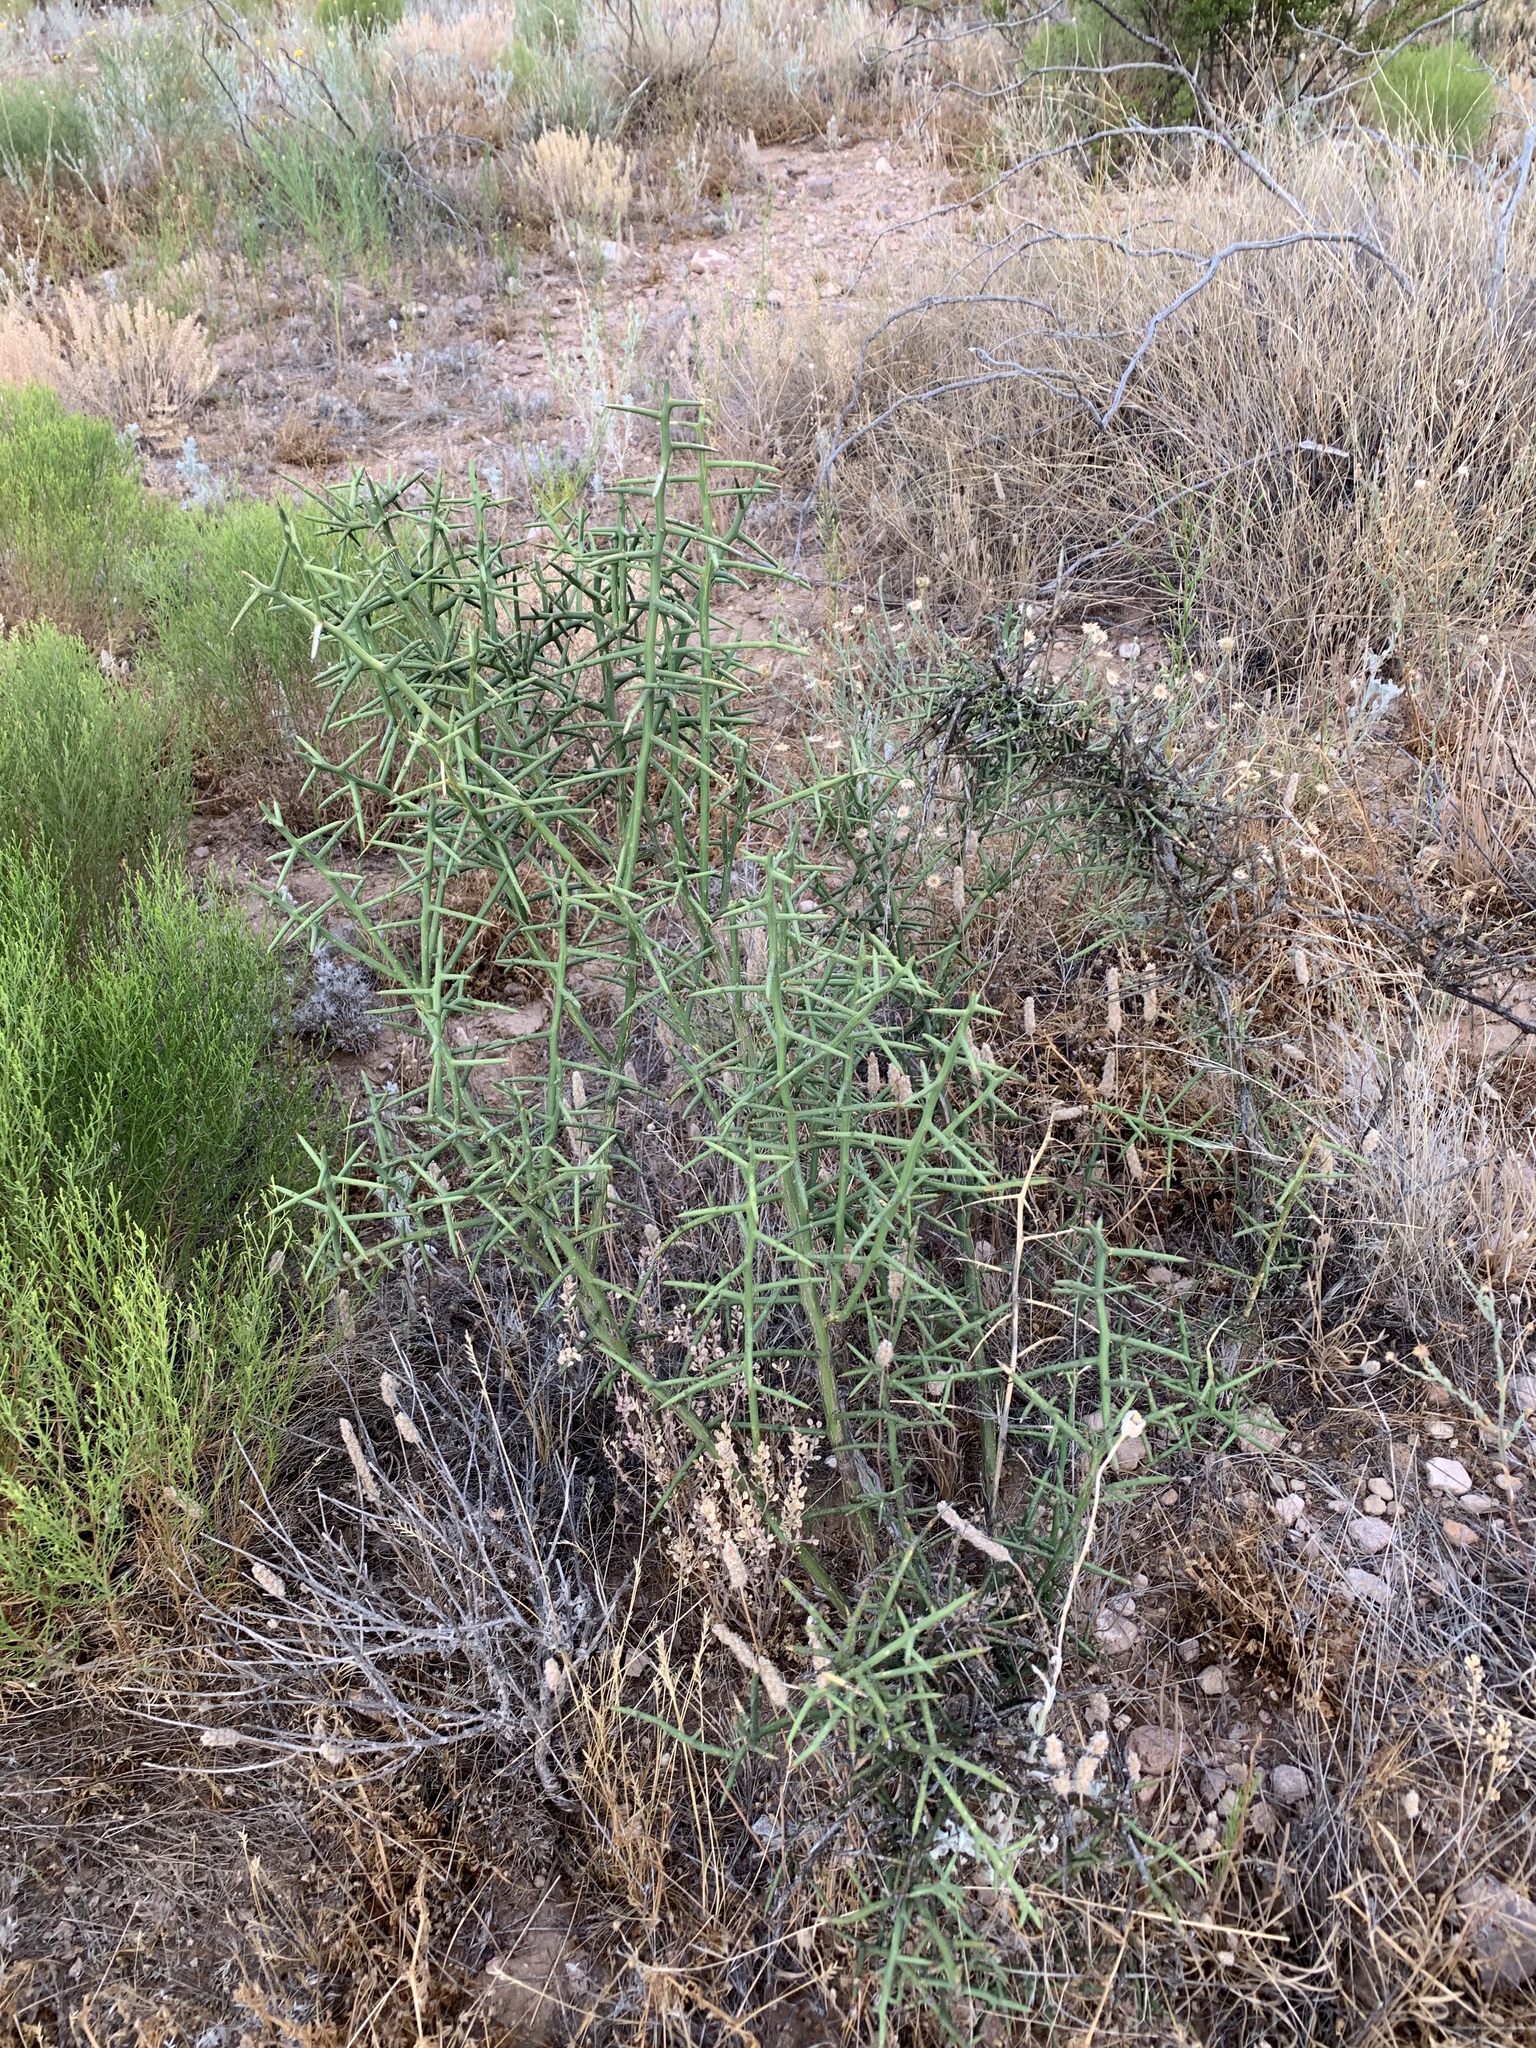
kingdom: Plantae
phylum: Tracheophyta
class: Magnoliopsida
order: Brassicales
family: Koeberliniaceae
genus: Koeberlinia
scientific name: Koeberlinia spinosa
